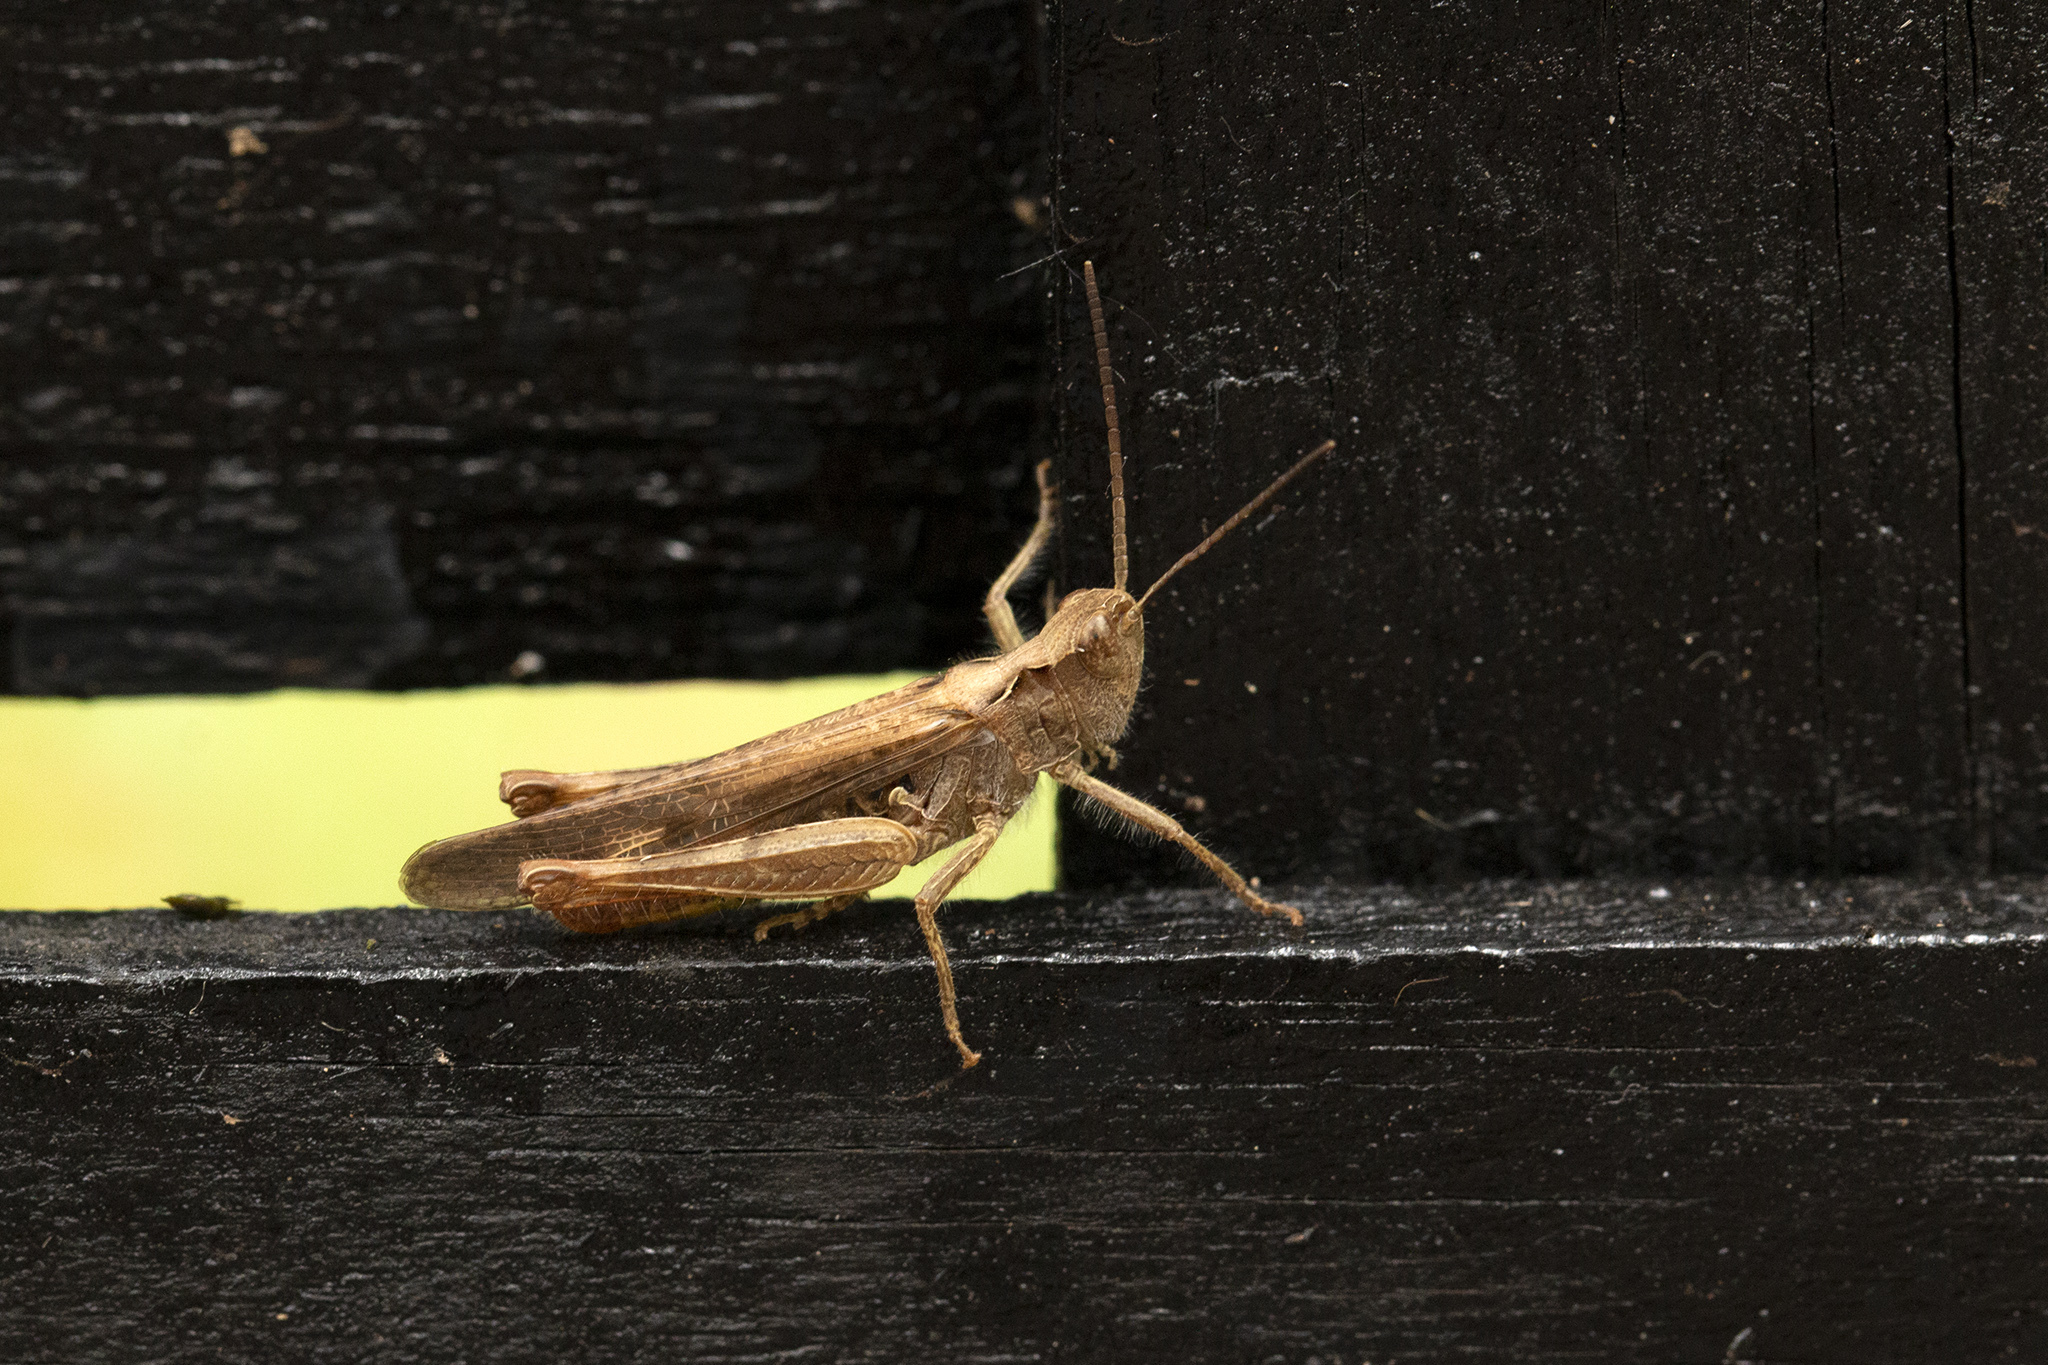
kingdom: Animalia
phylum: Arthropoda
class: Insecta
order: Orthoptera
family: Acrididae
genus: Chorthippus
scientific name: Chorthippus brunneus
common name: Field grasshopper
